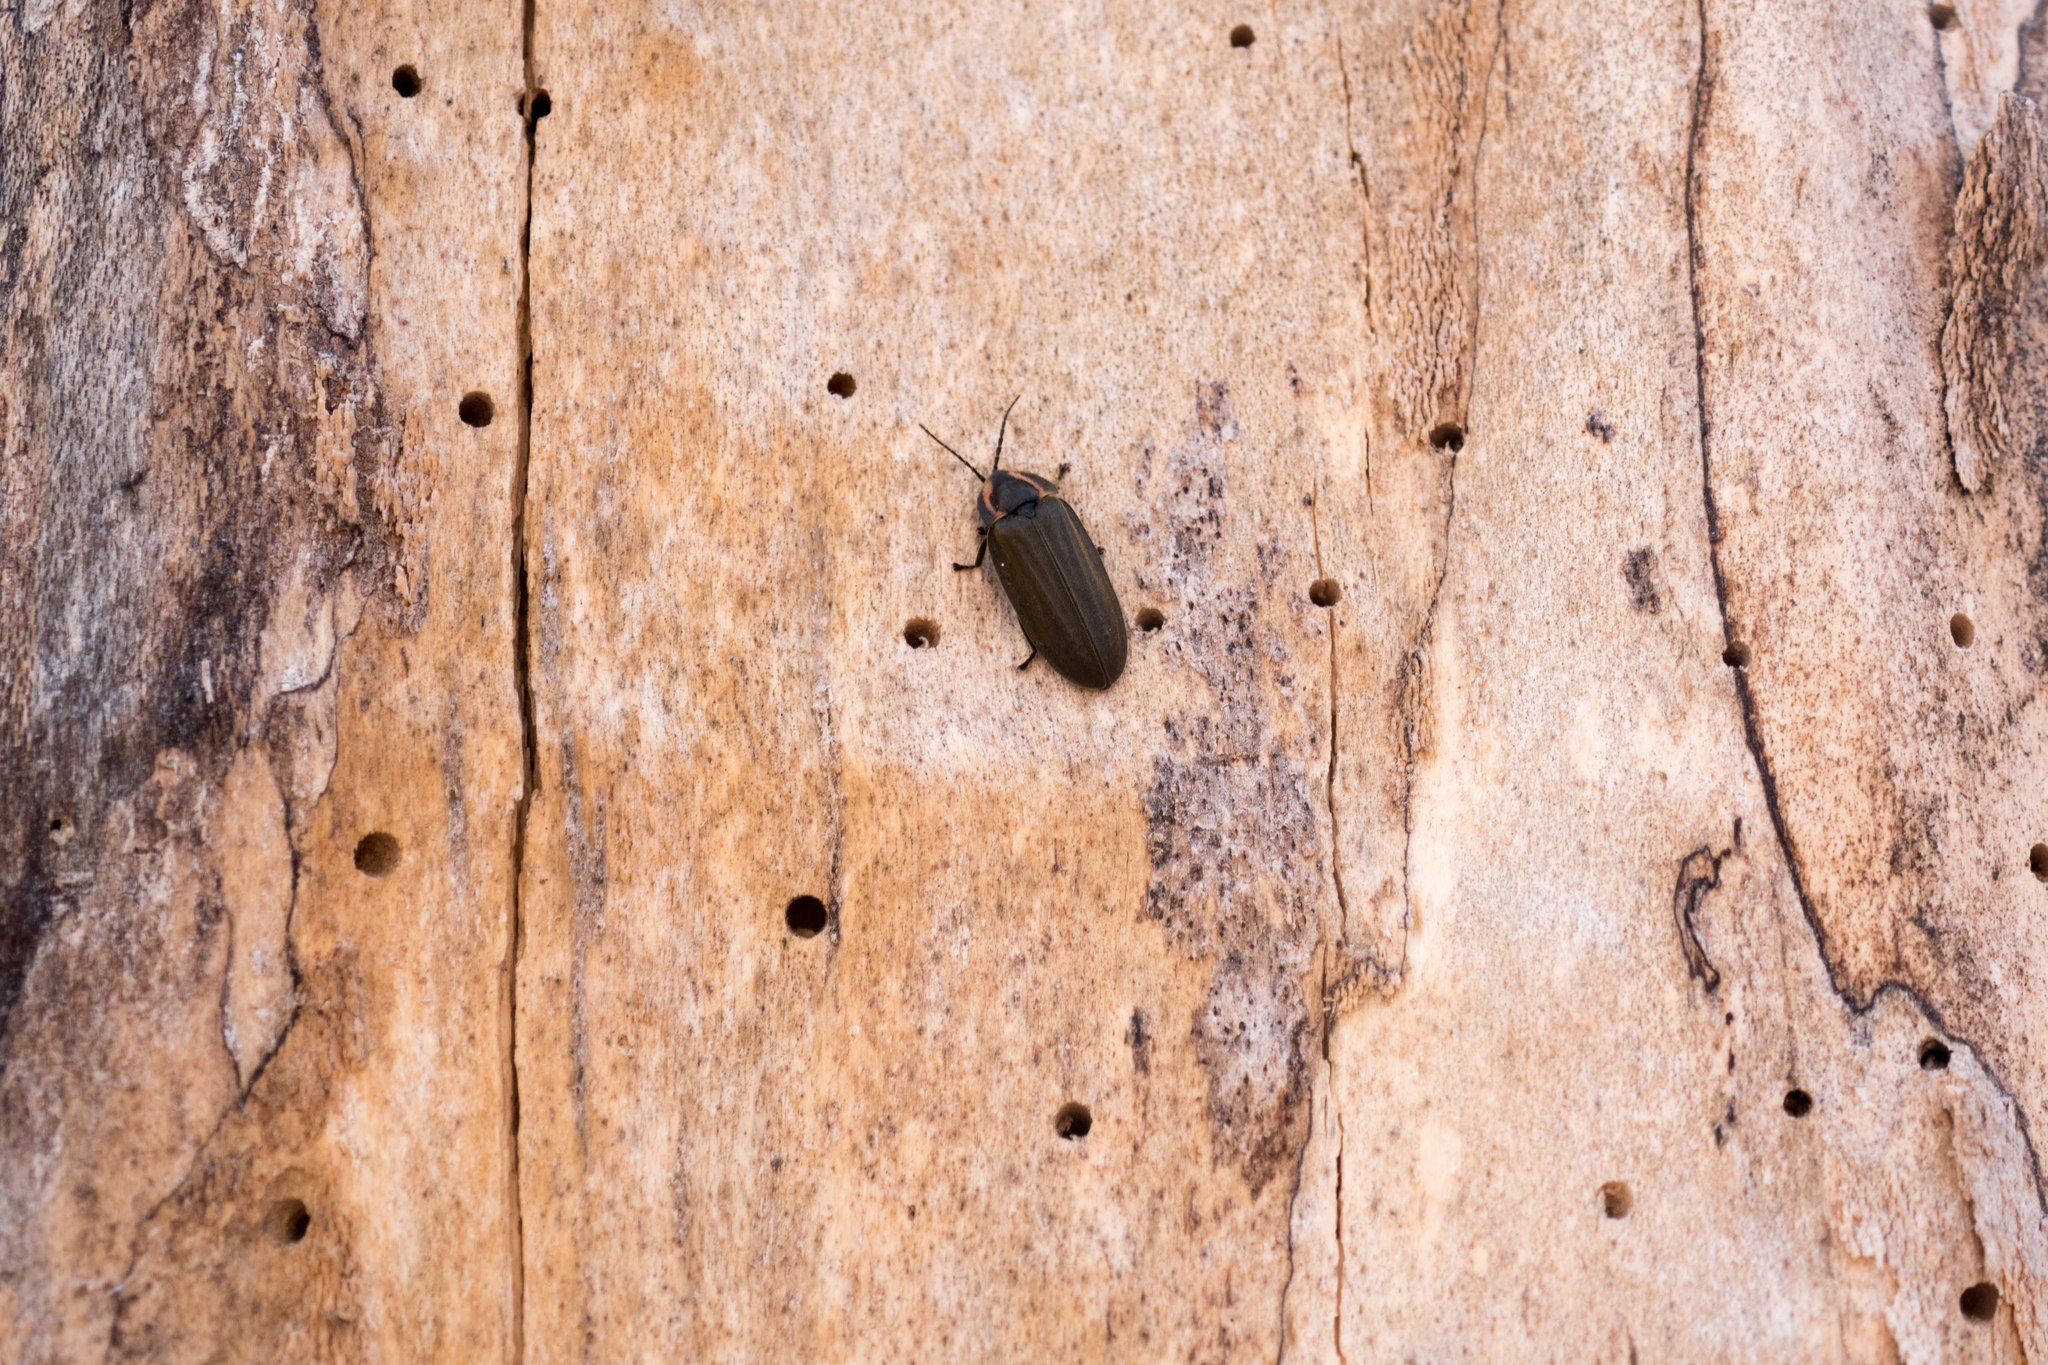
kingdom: Animalia
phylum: Arthropoda
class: Insecta
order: Coleoptera
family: Lampyridae
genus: Photinus
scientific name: Photinus corrusca
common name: Winter firefly
